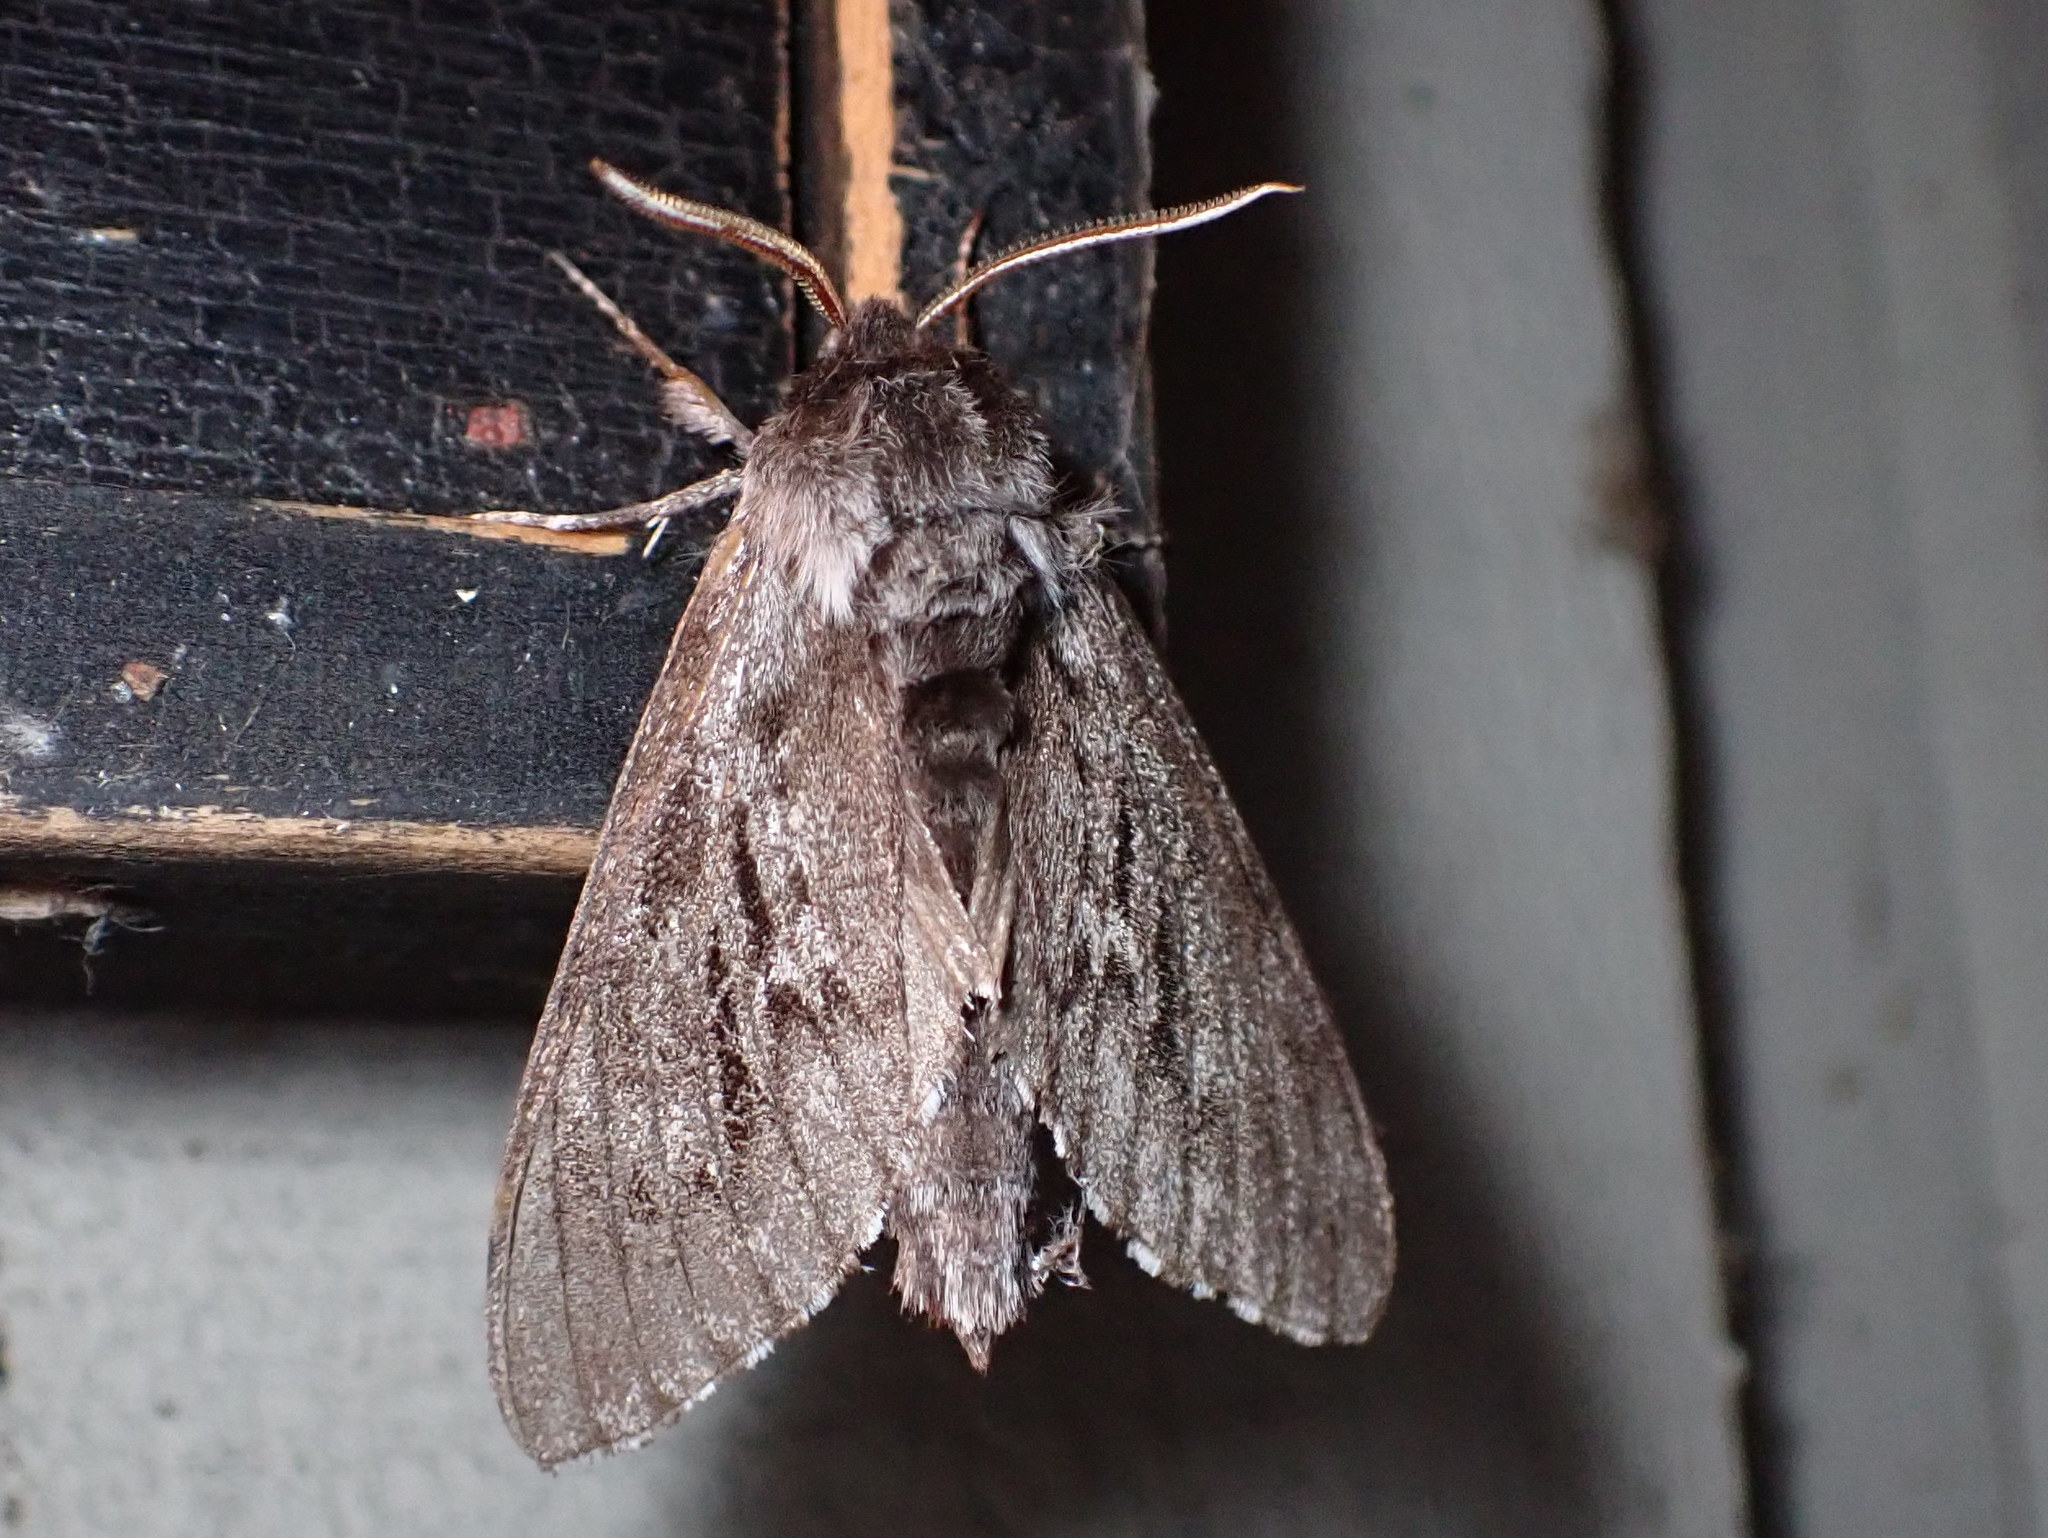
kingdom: Animalia
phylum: Arthropoda
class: Insecta
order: Lepidoptera
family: Sphingidae
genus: Lapara
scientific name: Lapara bombycoides
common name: Northern pine sphinx
